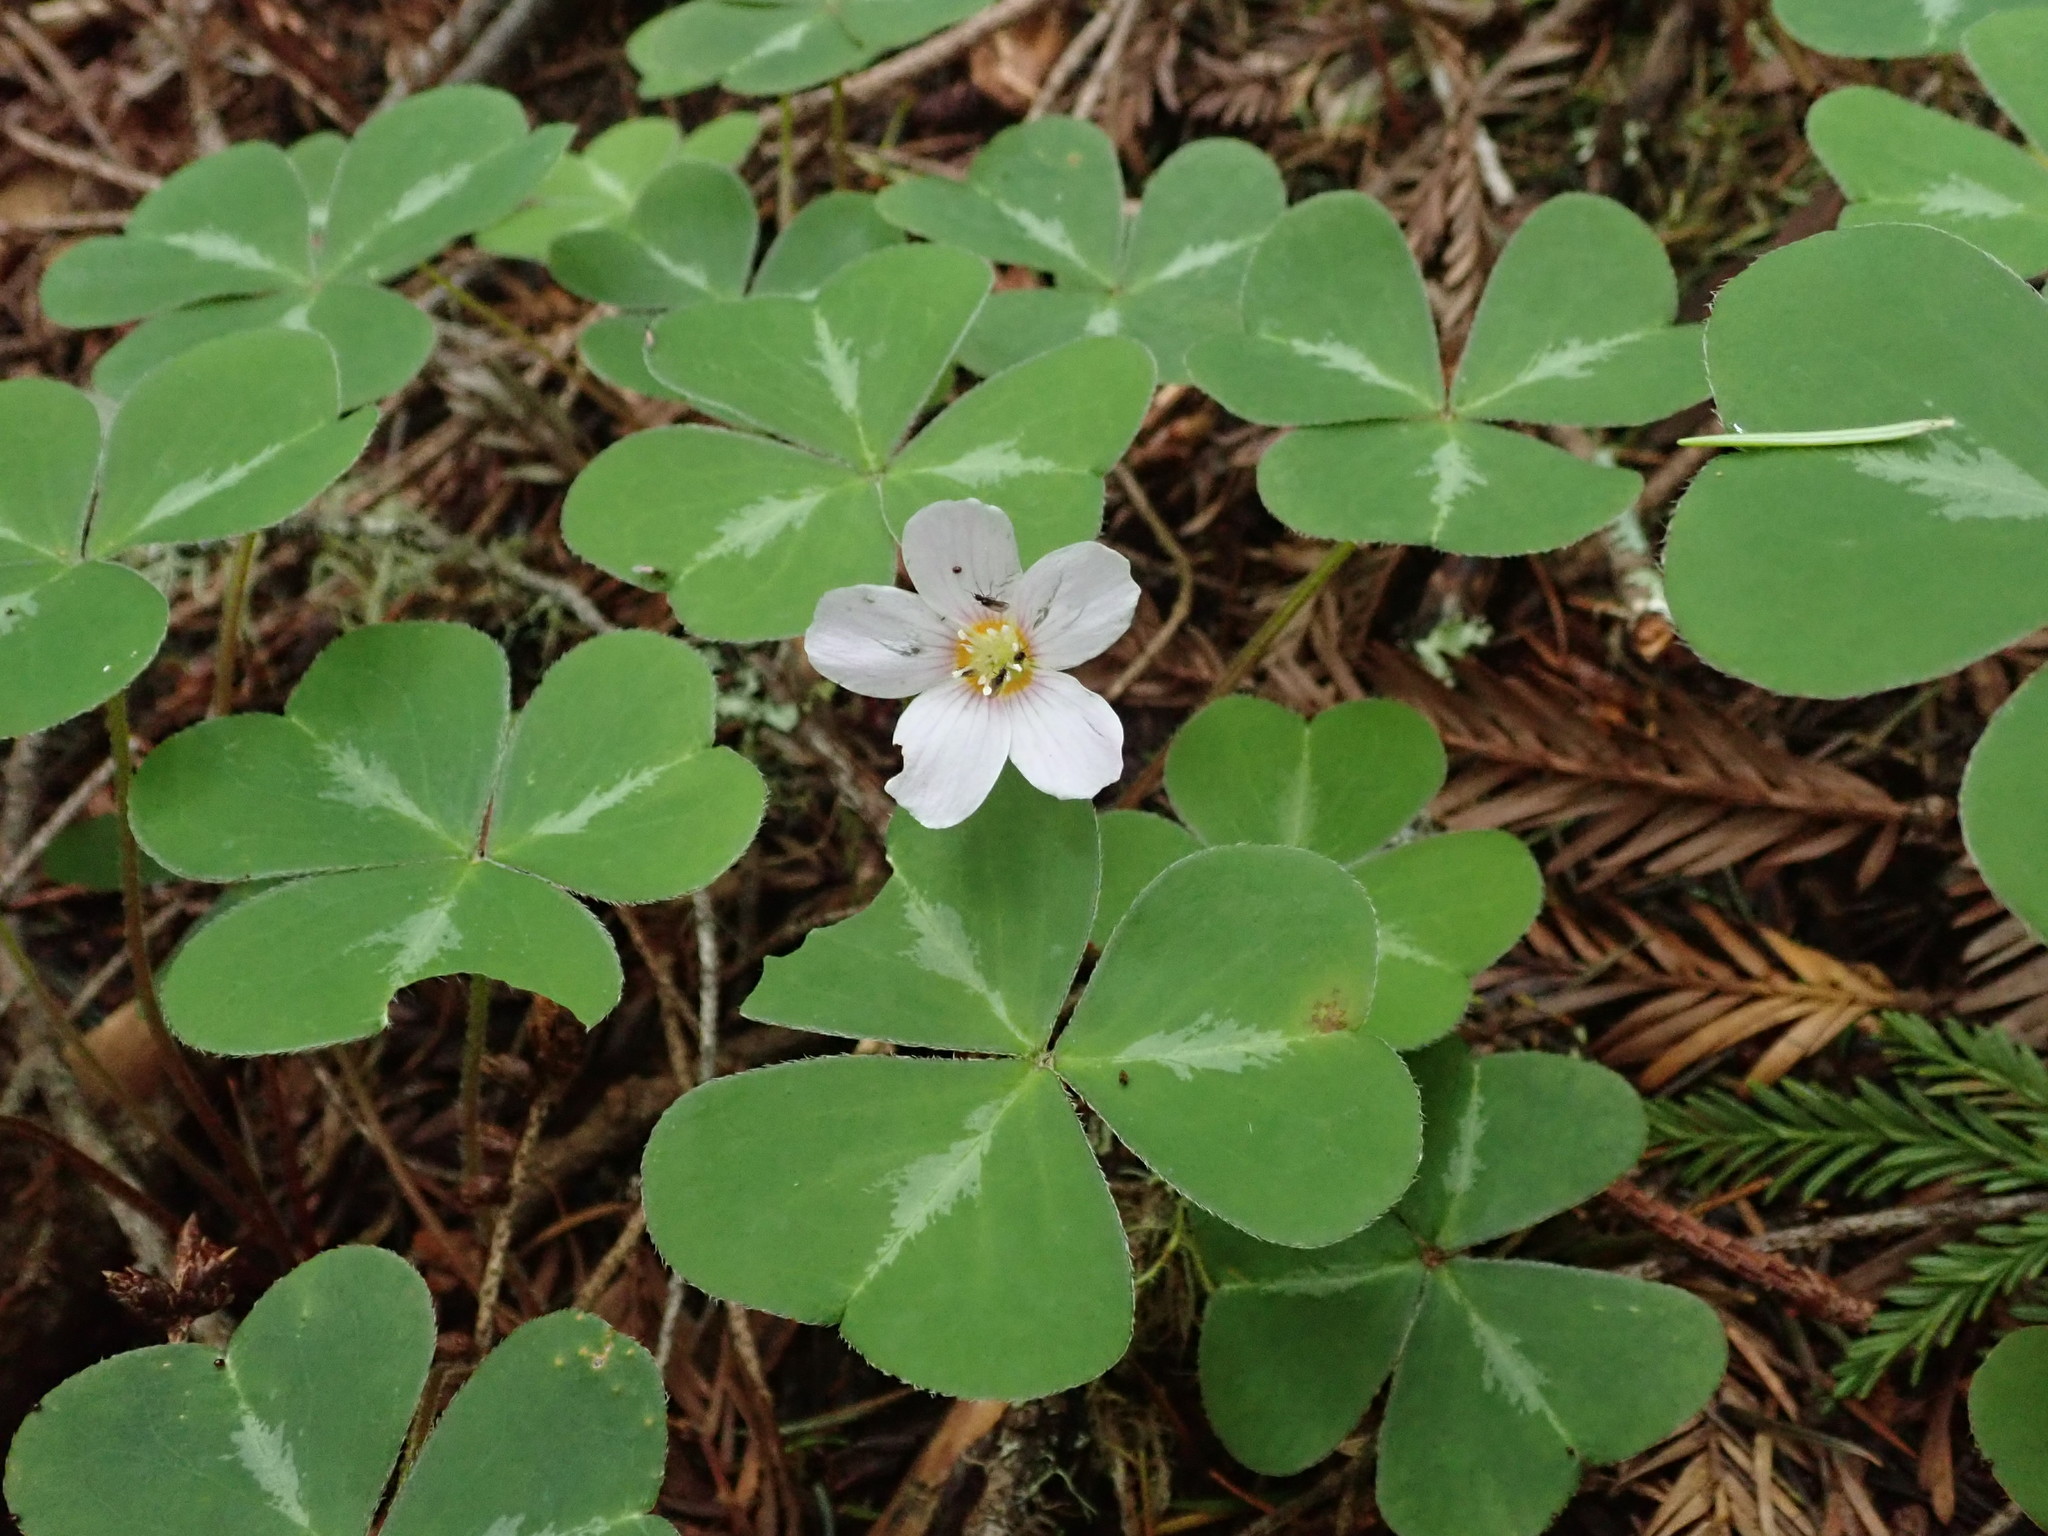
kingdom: Plantae
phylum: Tracheophyta
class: Magnoliopsida
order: Oxalidales
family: Oxalidaceae
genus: Oxalis
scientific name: Oxalis oregana
